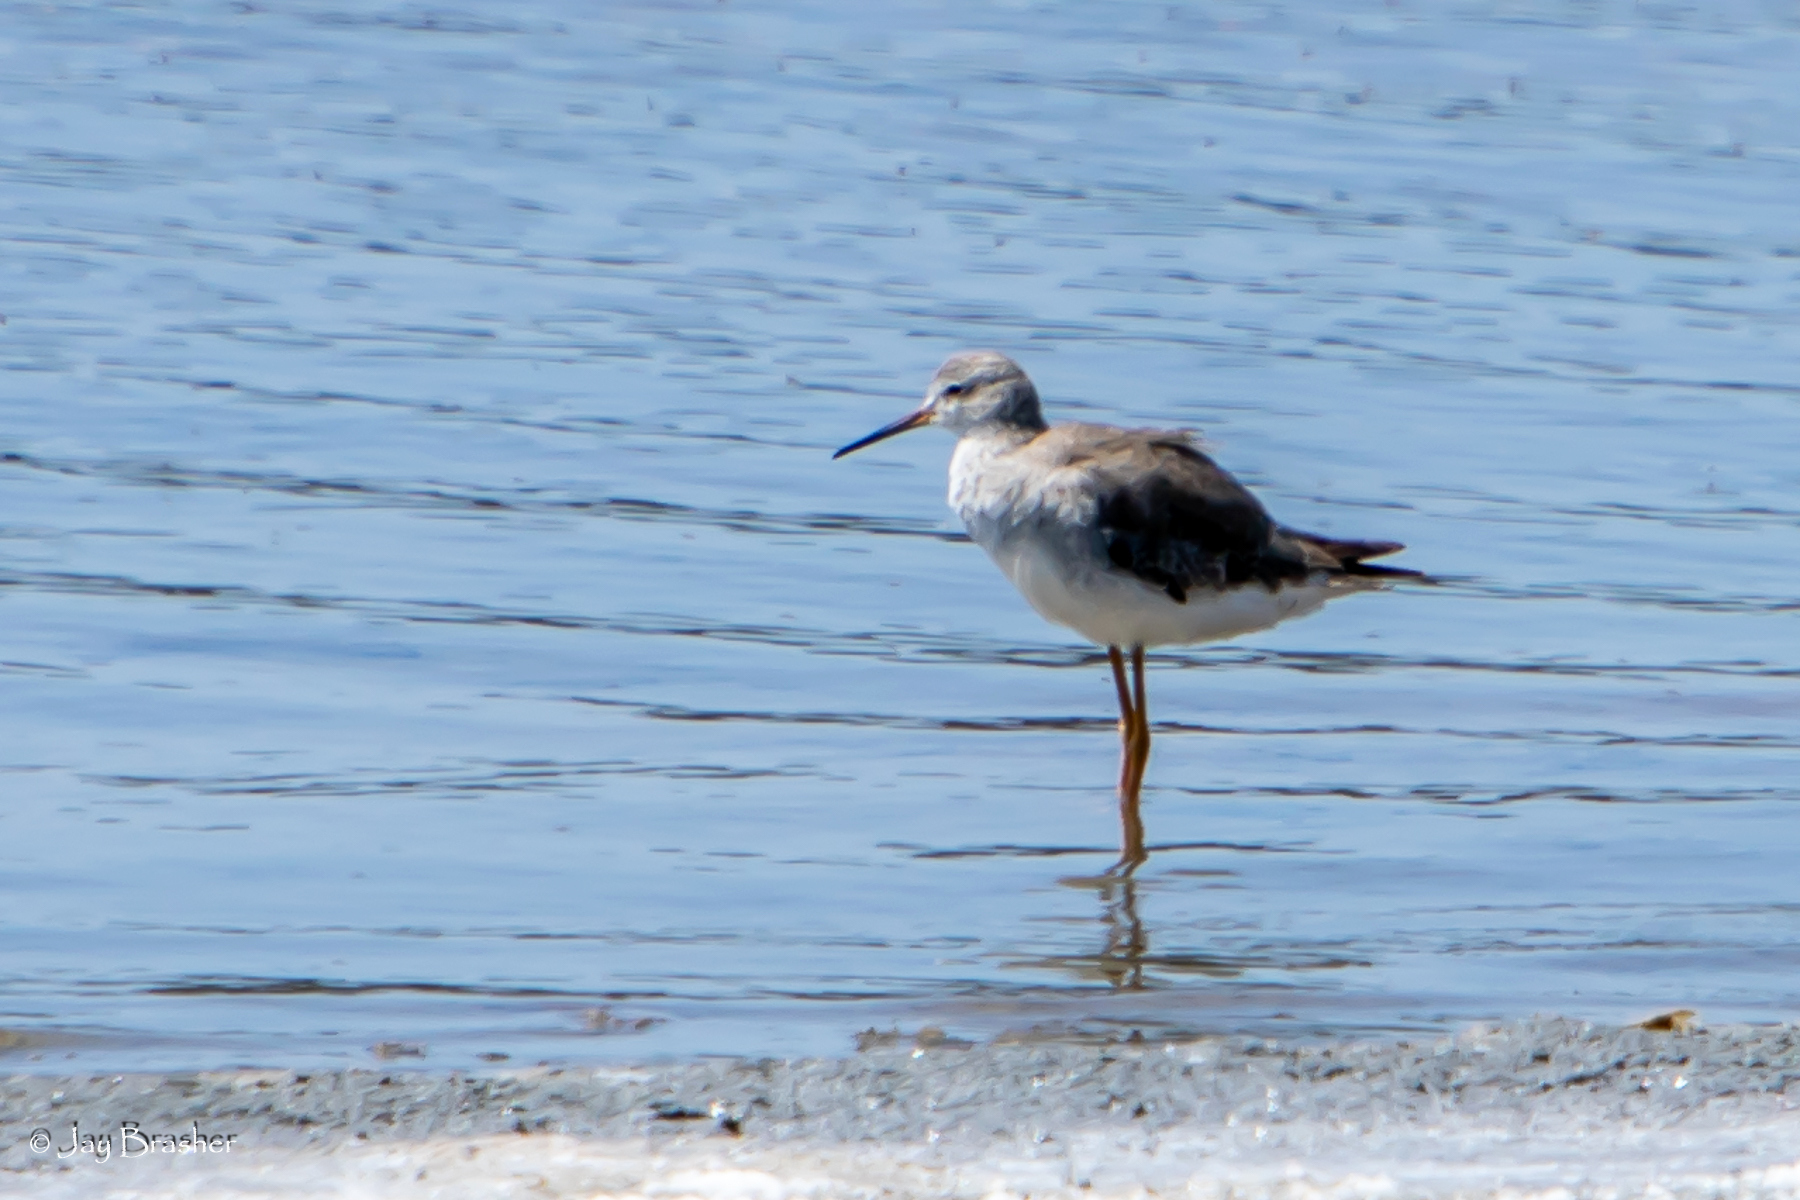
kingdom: Animalia
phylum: Chordata
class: Aves
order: Charadriiformes
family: Scolopacidae
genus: Tringa
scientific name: Tringa flavipes
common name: Lesser yellowlegs
